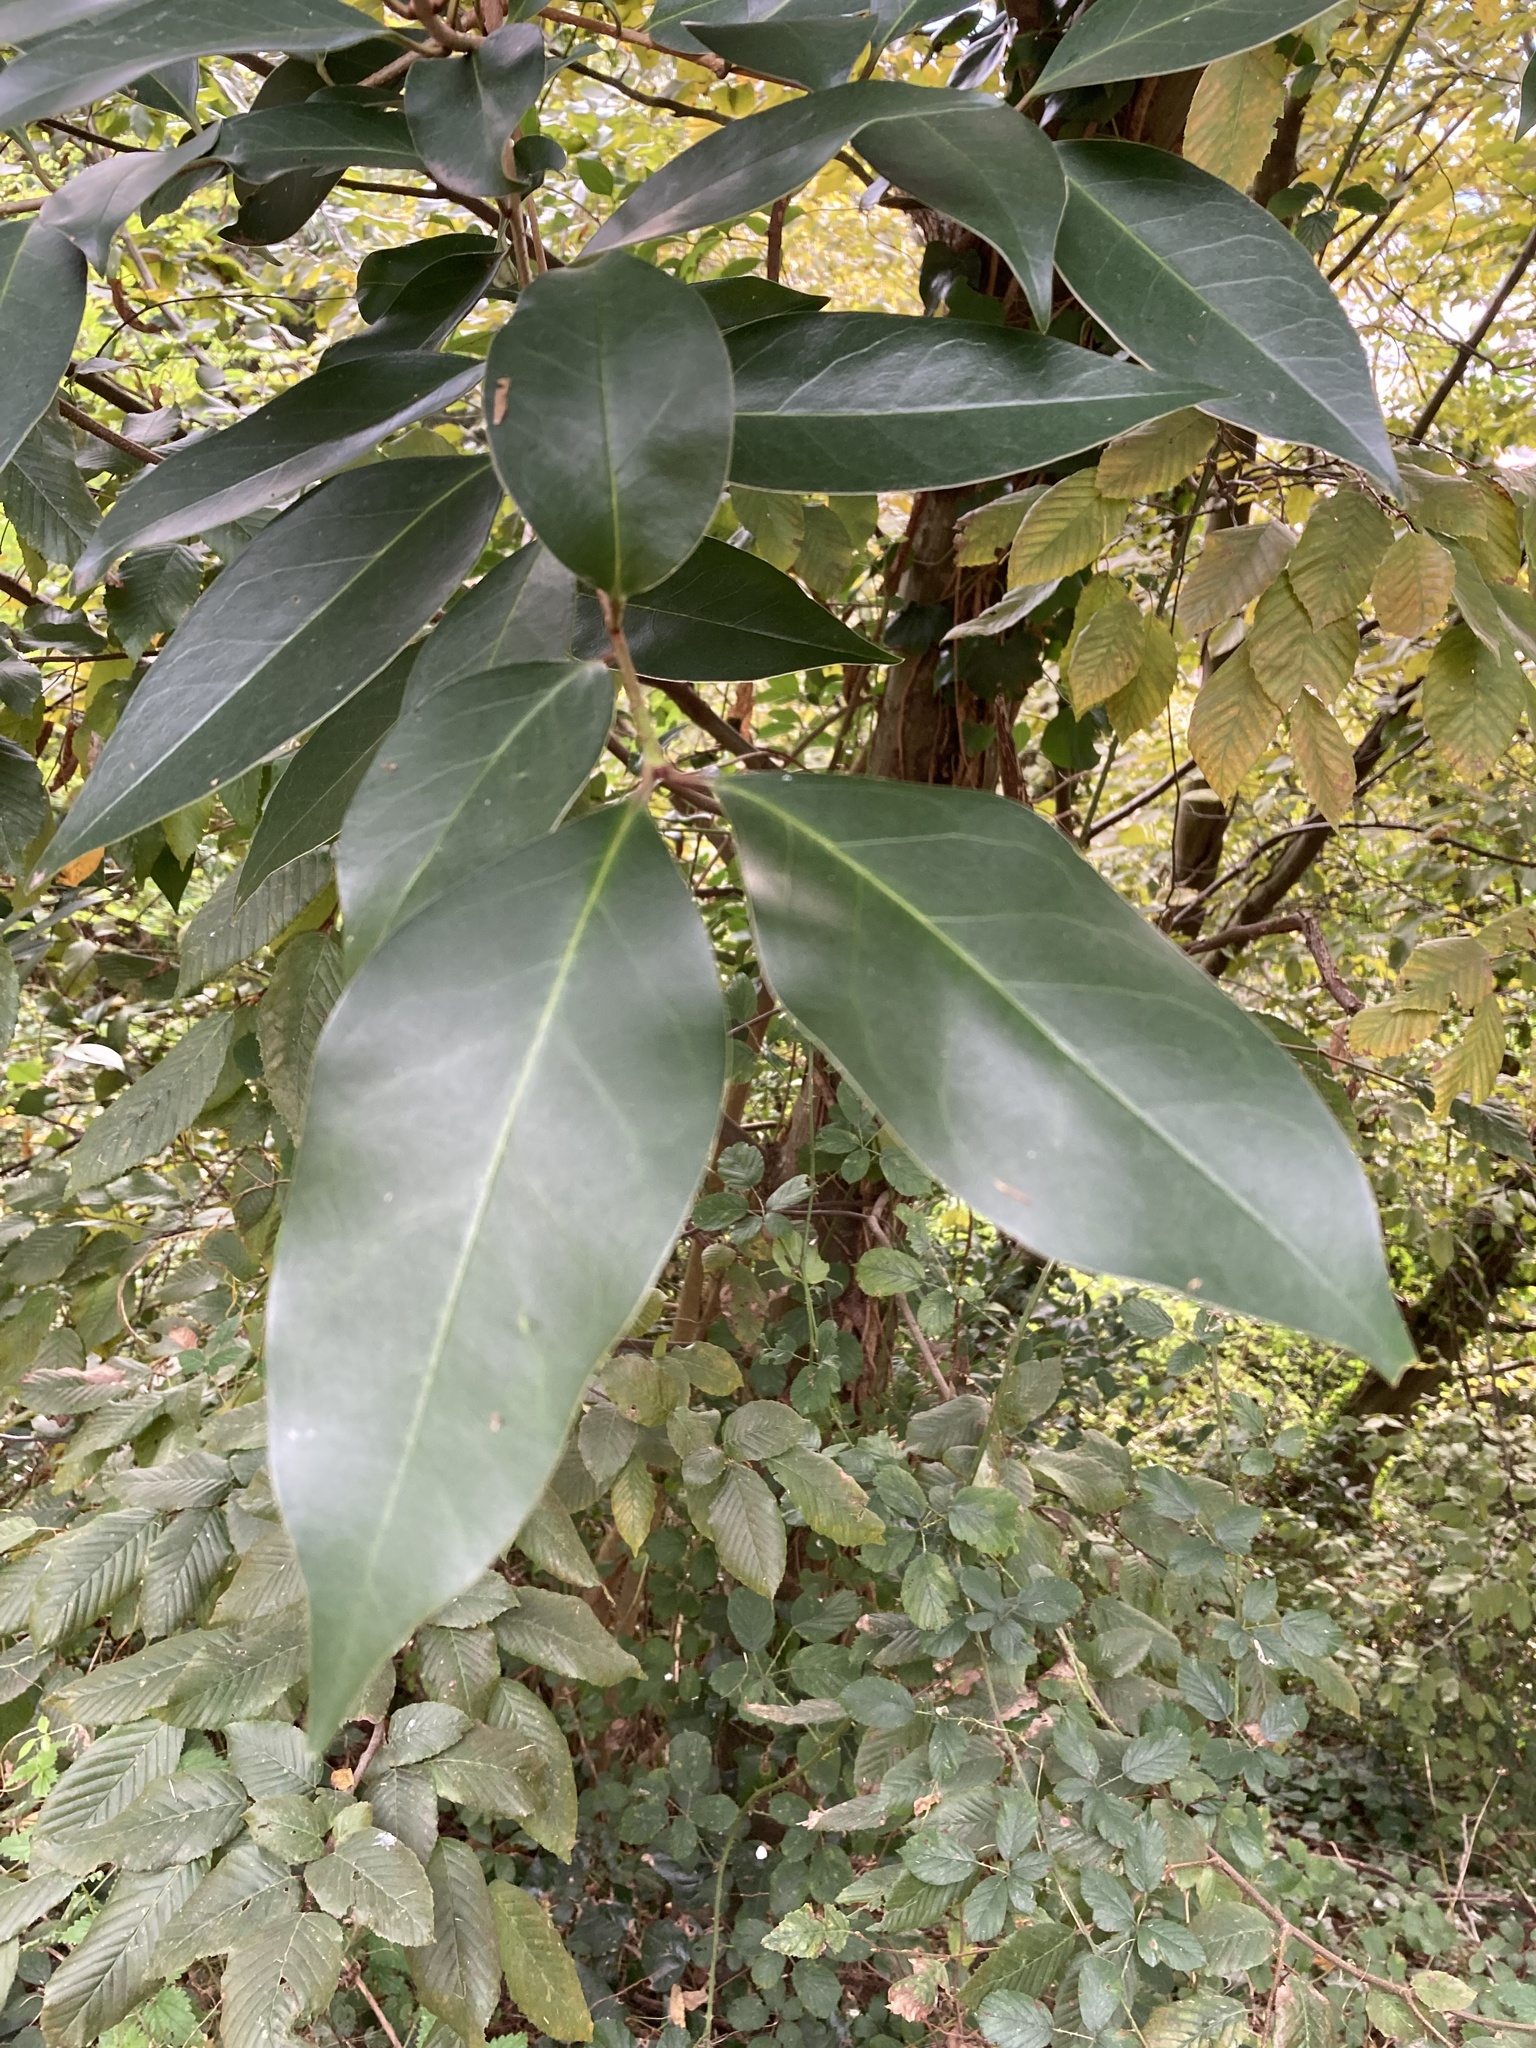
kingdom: Plantae
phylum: Tracheophyta
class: Magnoliopsida
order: Laurales
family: Lauraceae
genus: Laurus
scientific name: Laurus nobilis
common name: Bay
